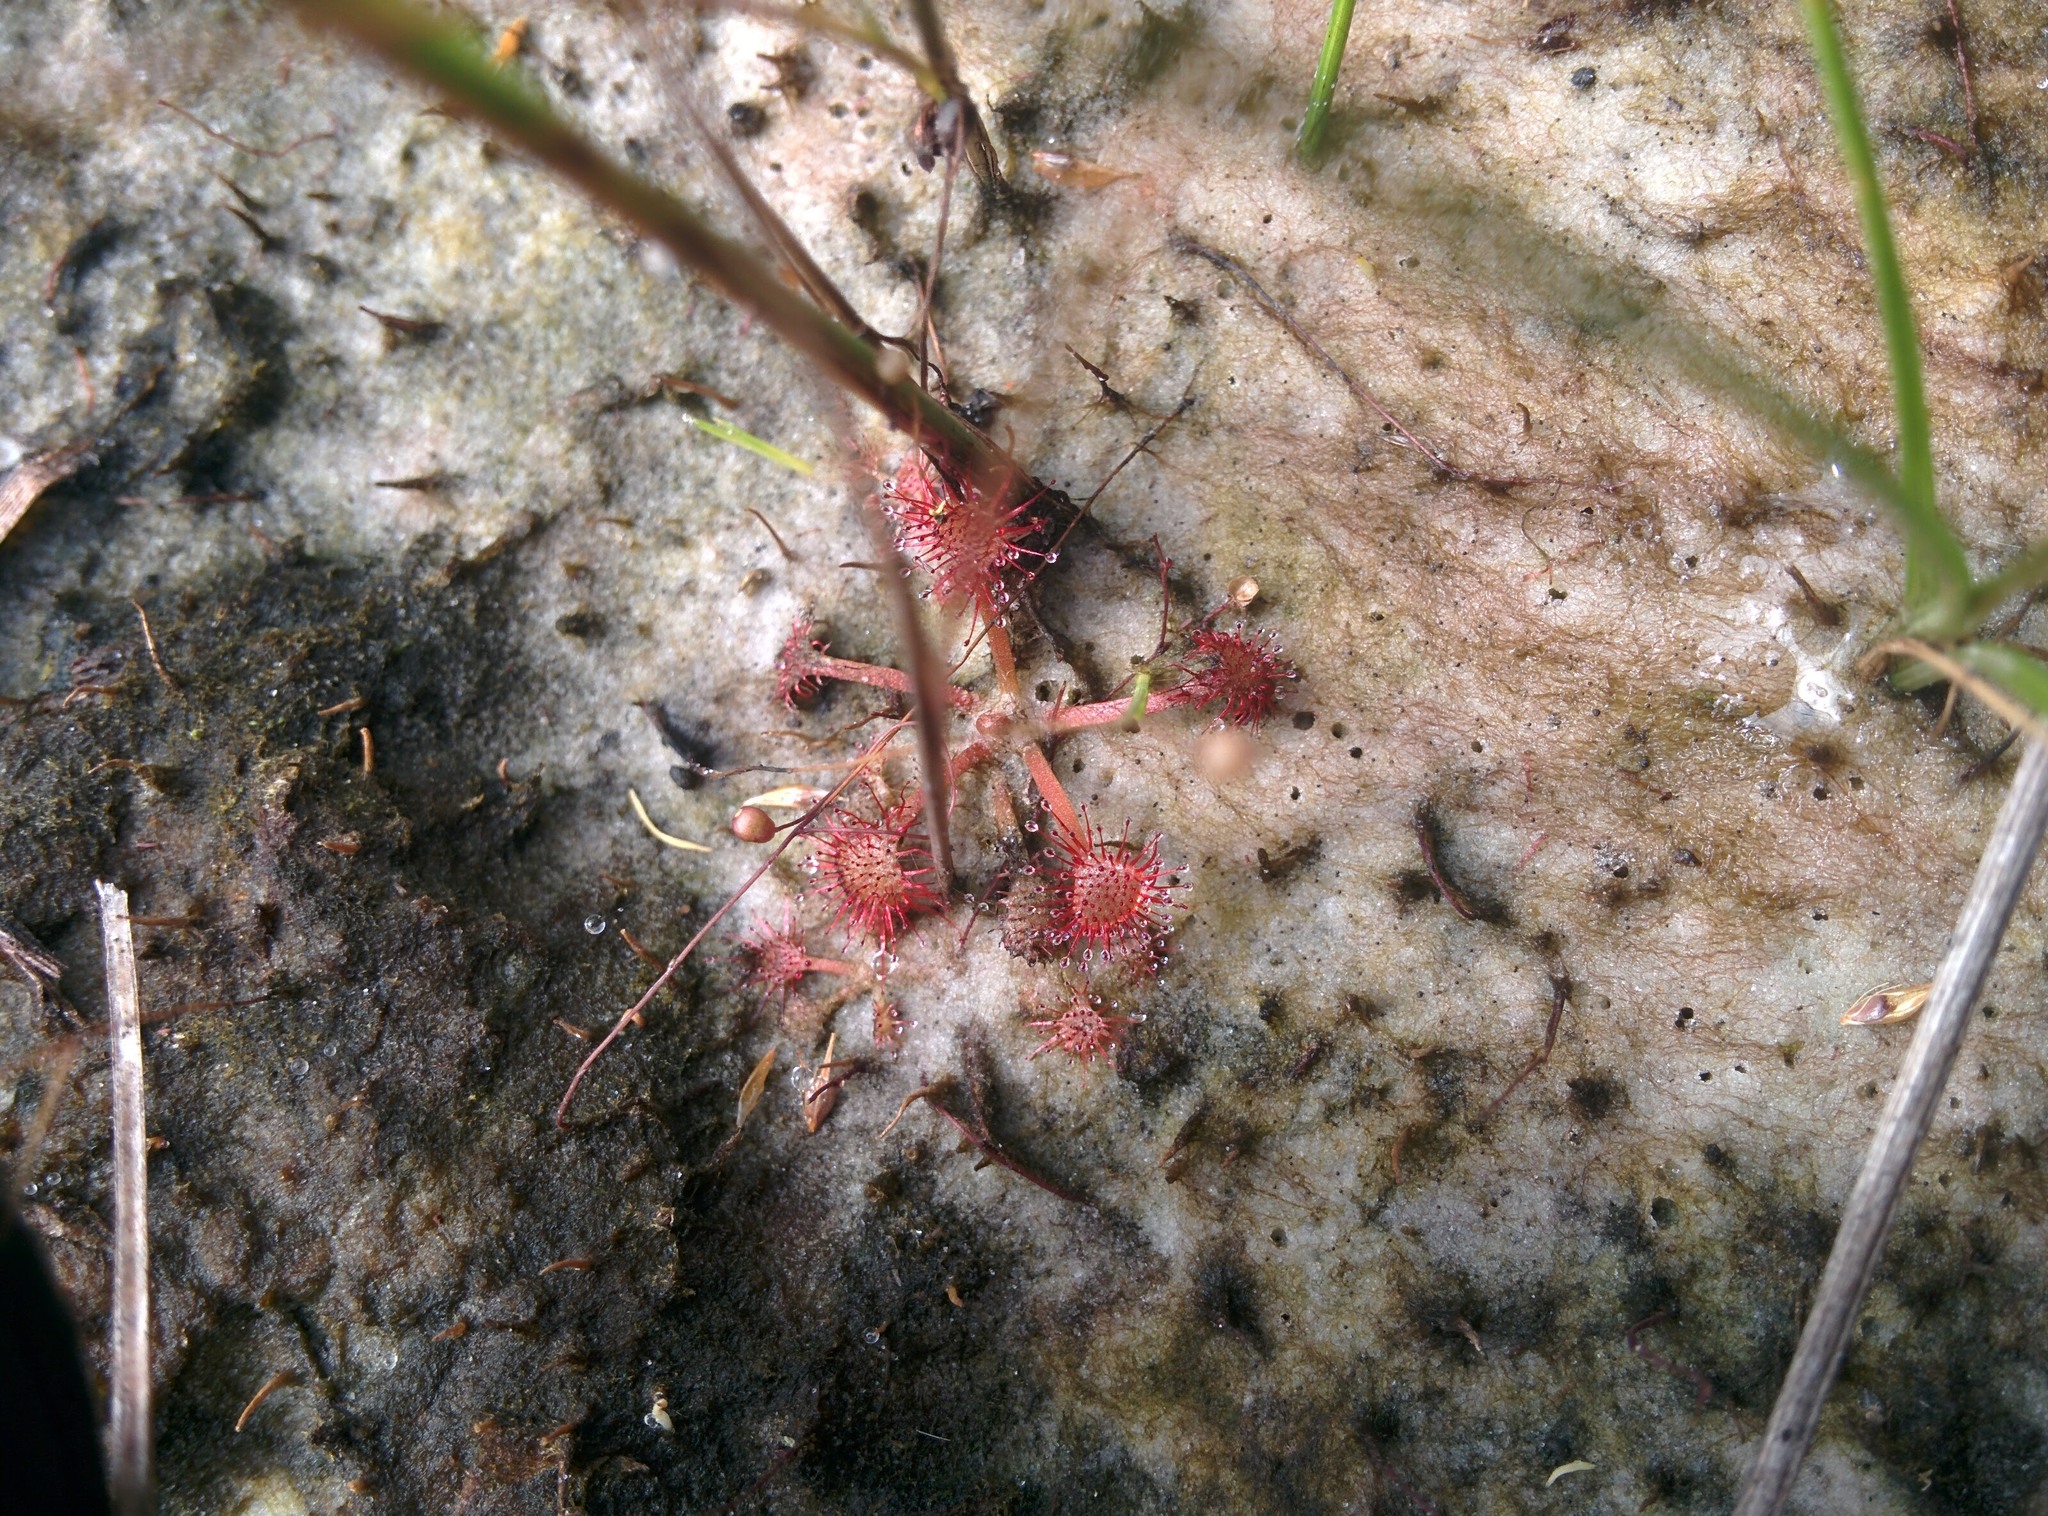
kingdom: Plantae
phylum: Tracheophyta
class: Magnoliopsida
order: Caryophyllales
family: Droseraceae
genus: Drosera
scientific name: Drosera capillaris
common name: Pink sundew
